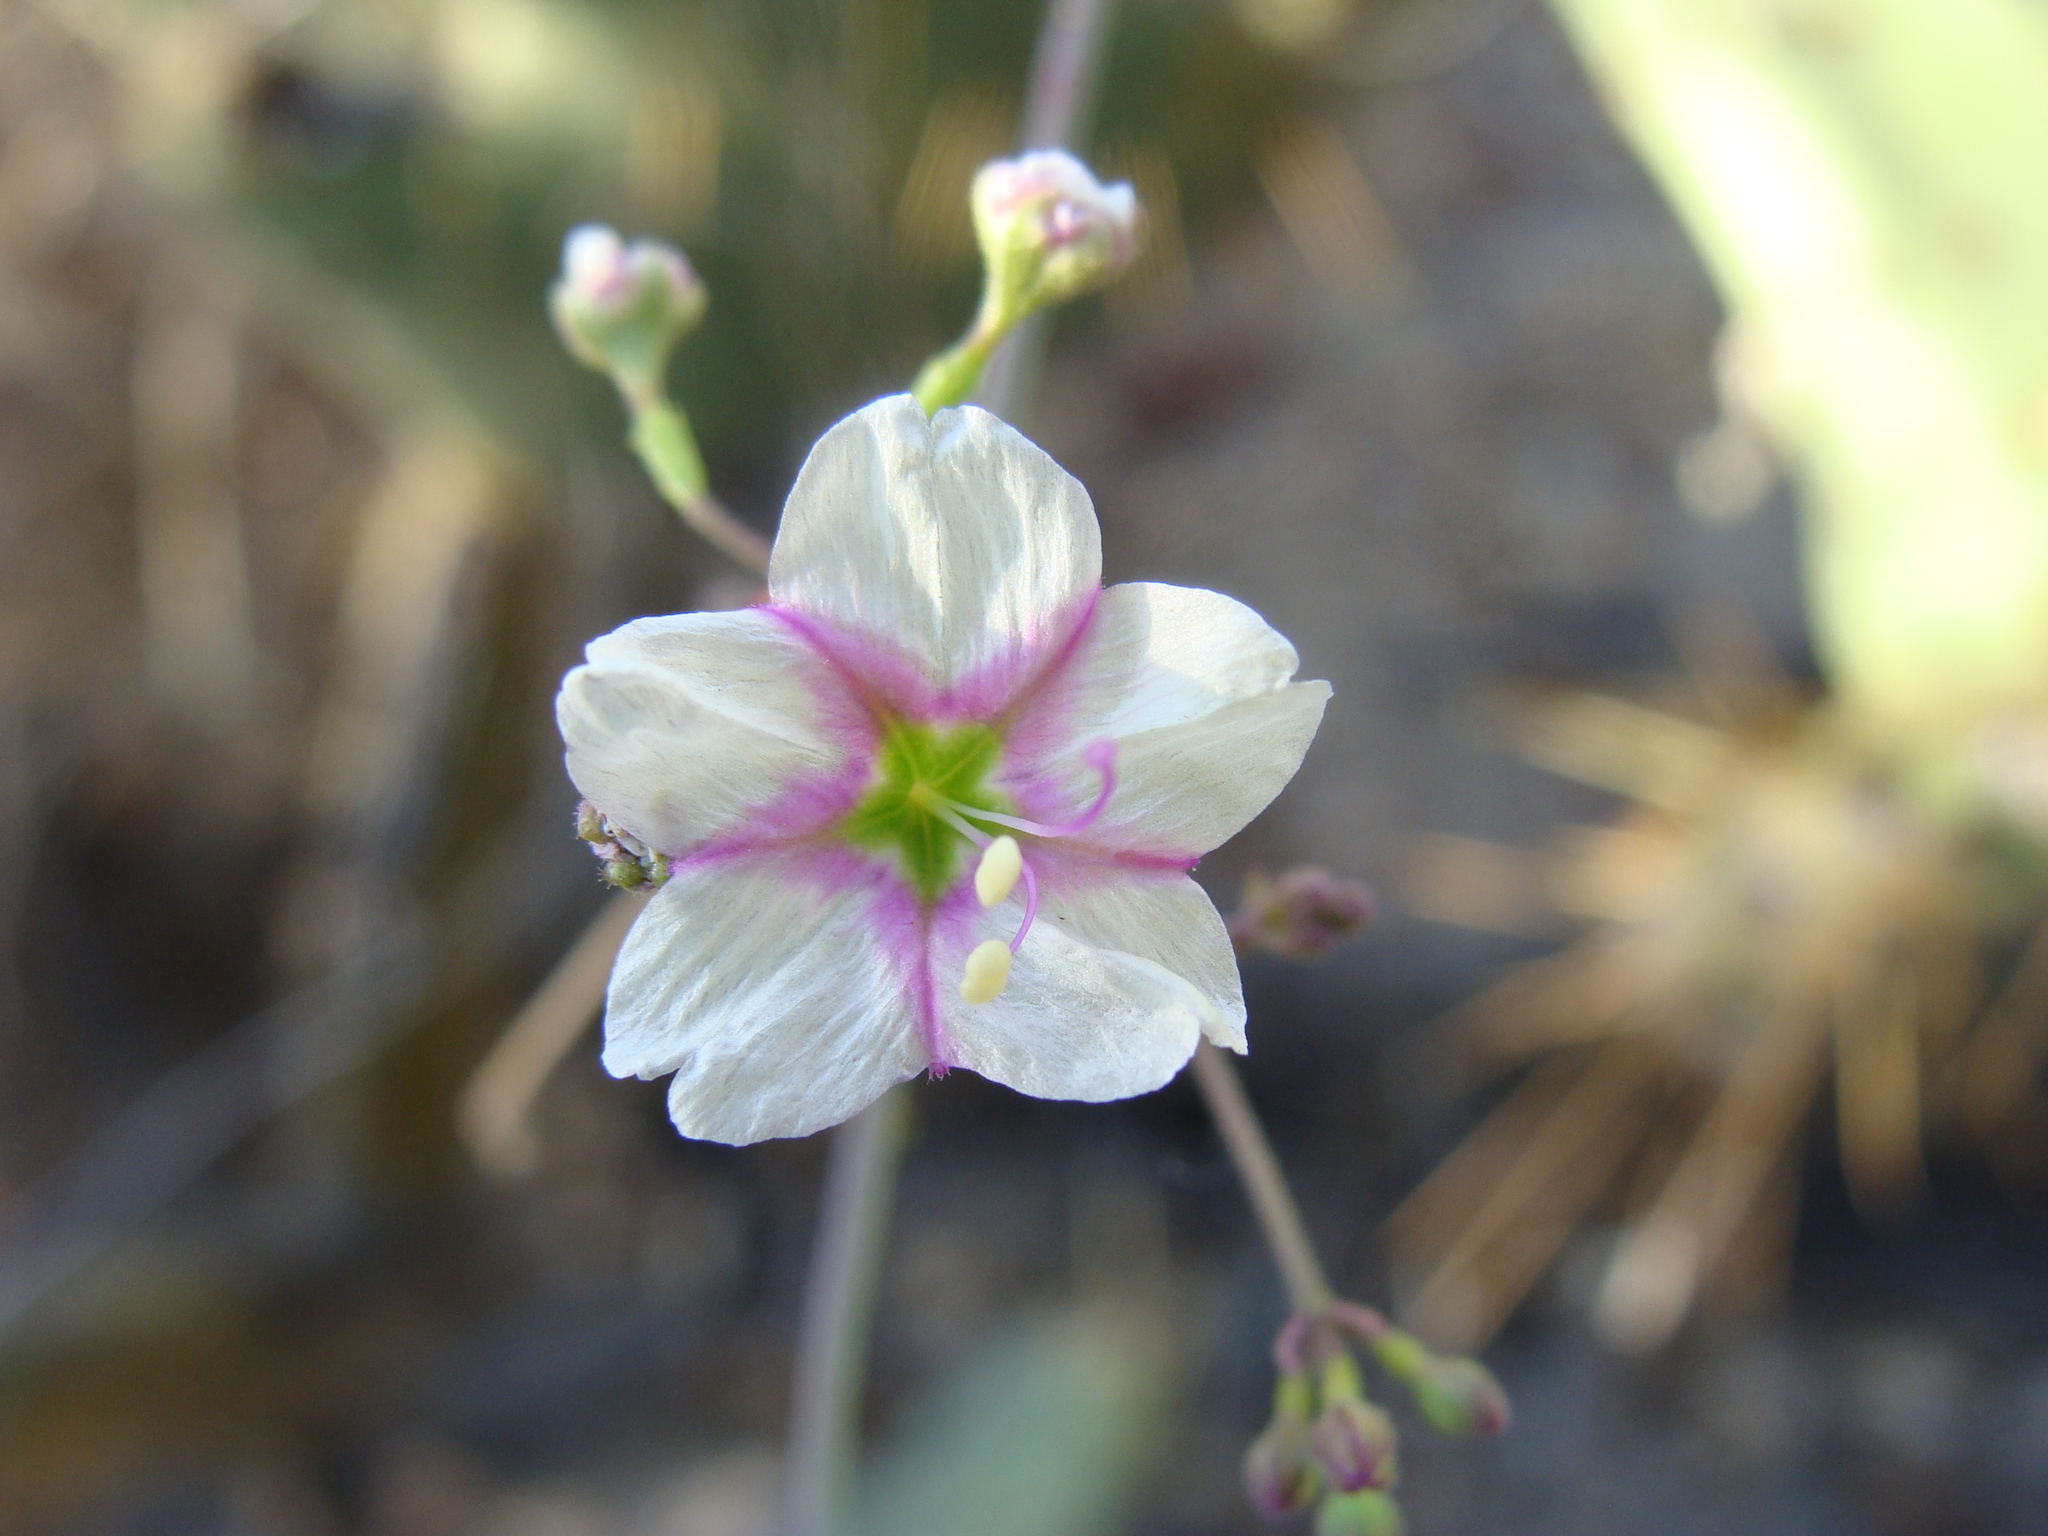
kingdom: Plantae
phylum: Tracheophyta
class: Magnoliopsida
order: Caryophyllales
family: Nyctaginaceae
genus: Commicarpus
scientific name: Commicarpus brandegeei
